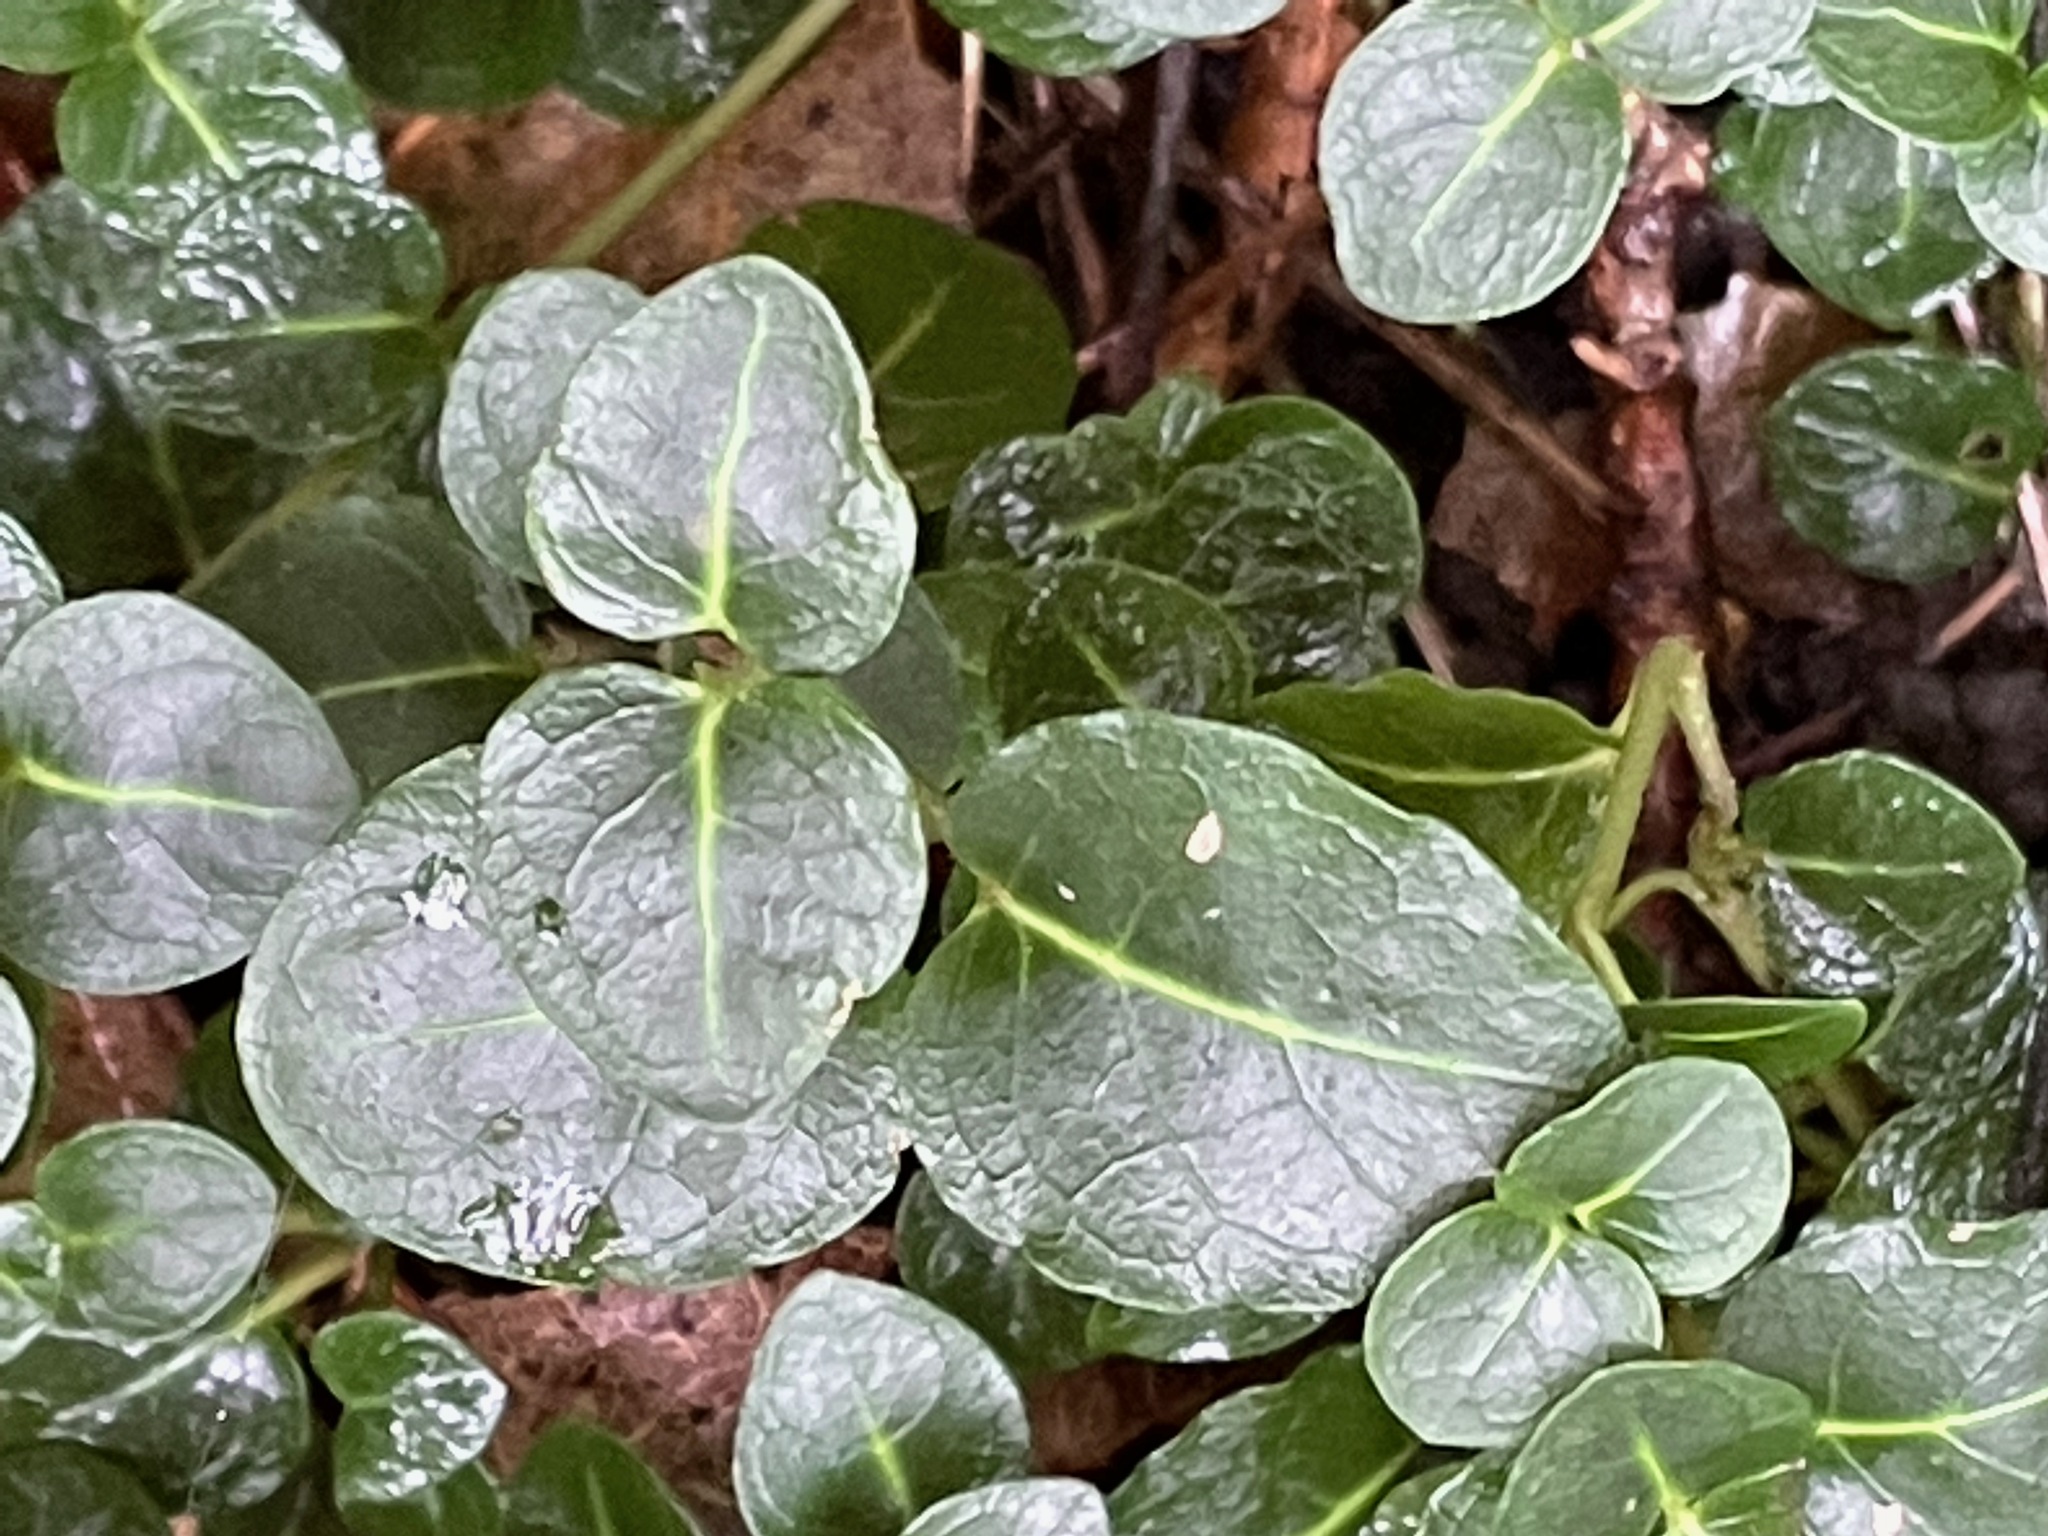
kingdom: Plantae
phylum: Tracheophyta
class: Magnoliopsida
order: Gentianales
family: Rubiaceae
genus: Mitchella
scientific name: Mitchella repens
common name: Partridge-berry
